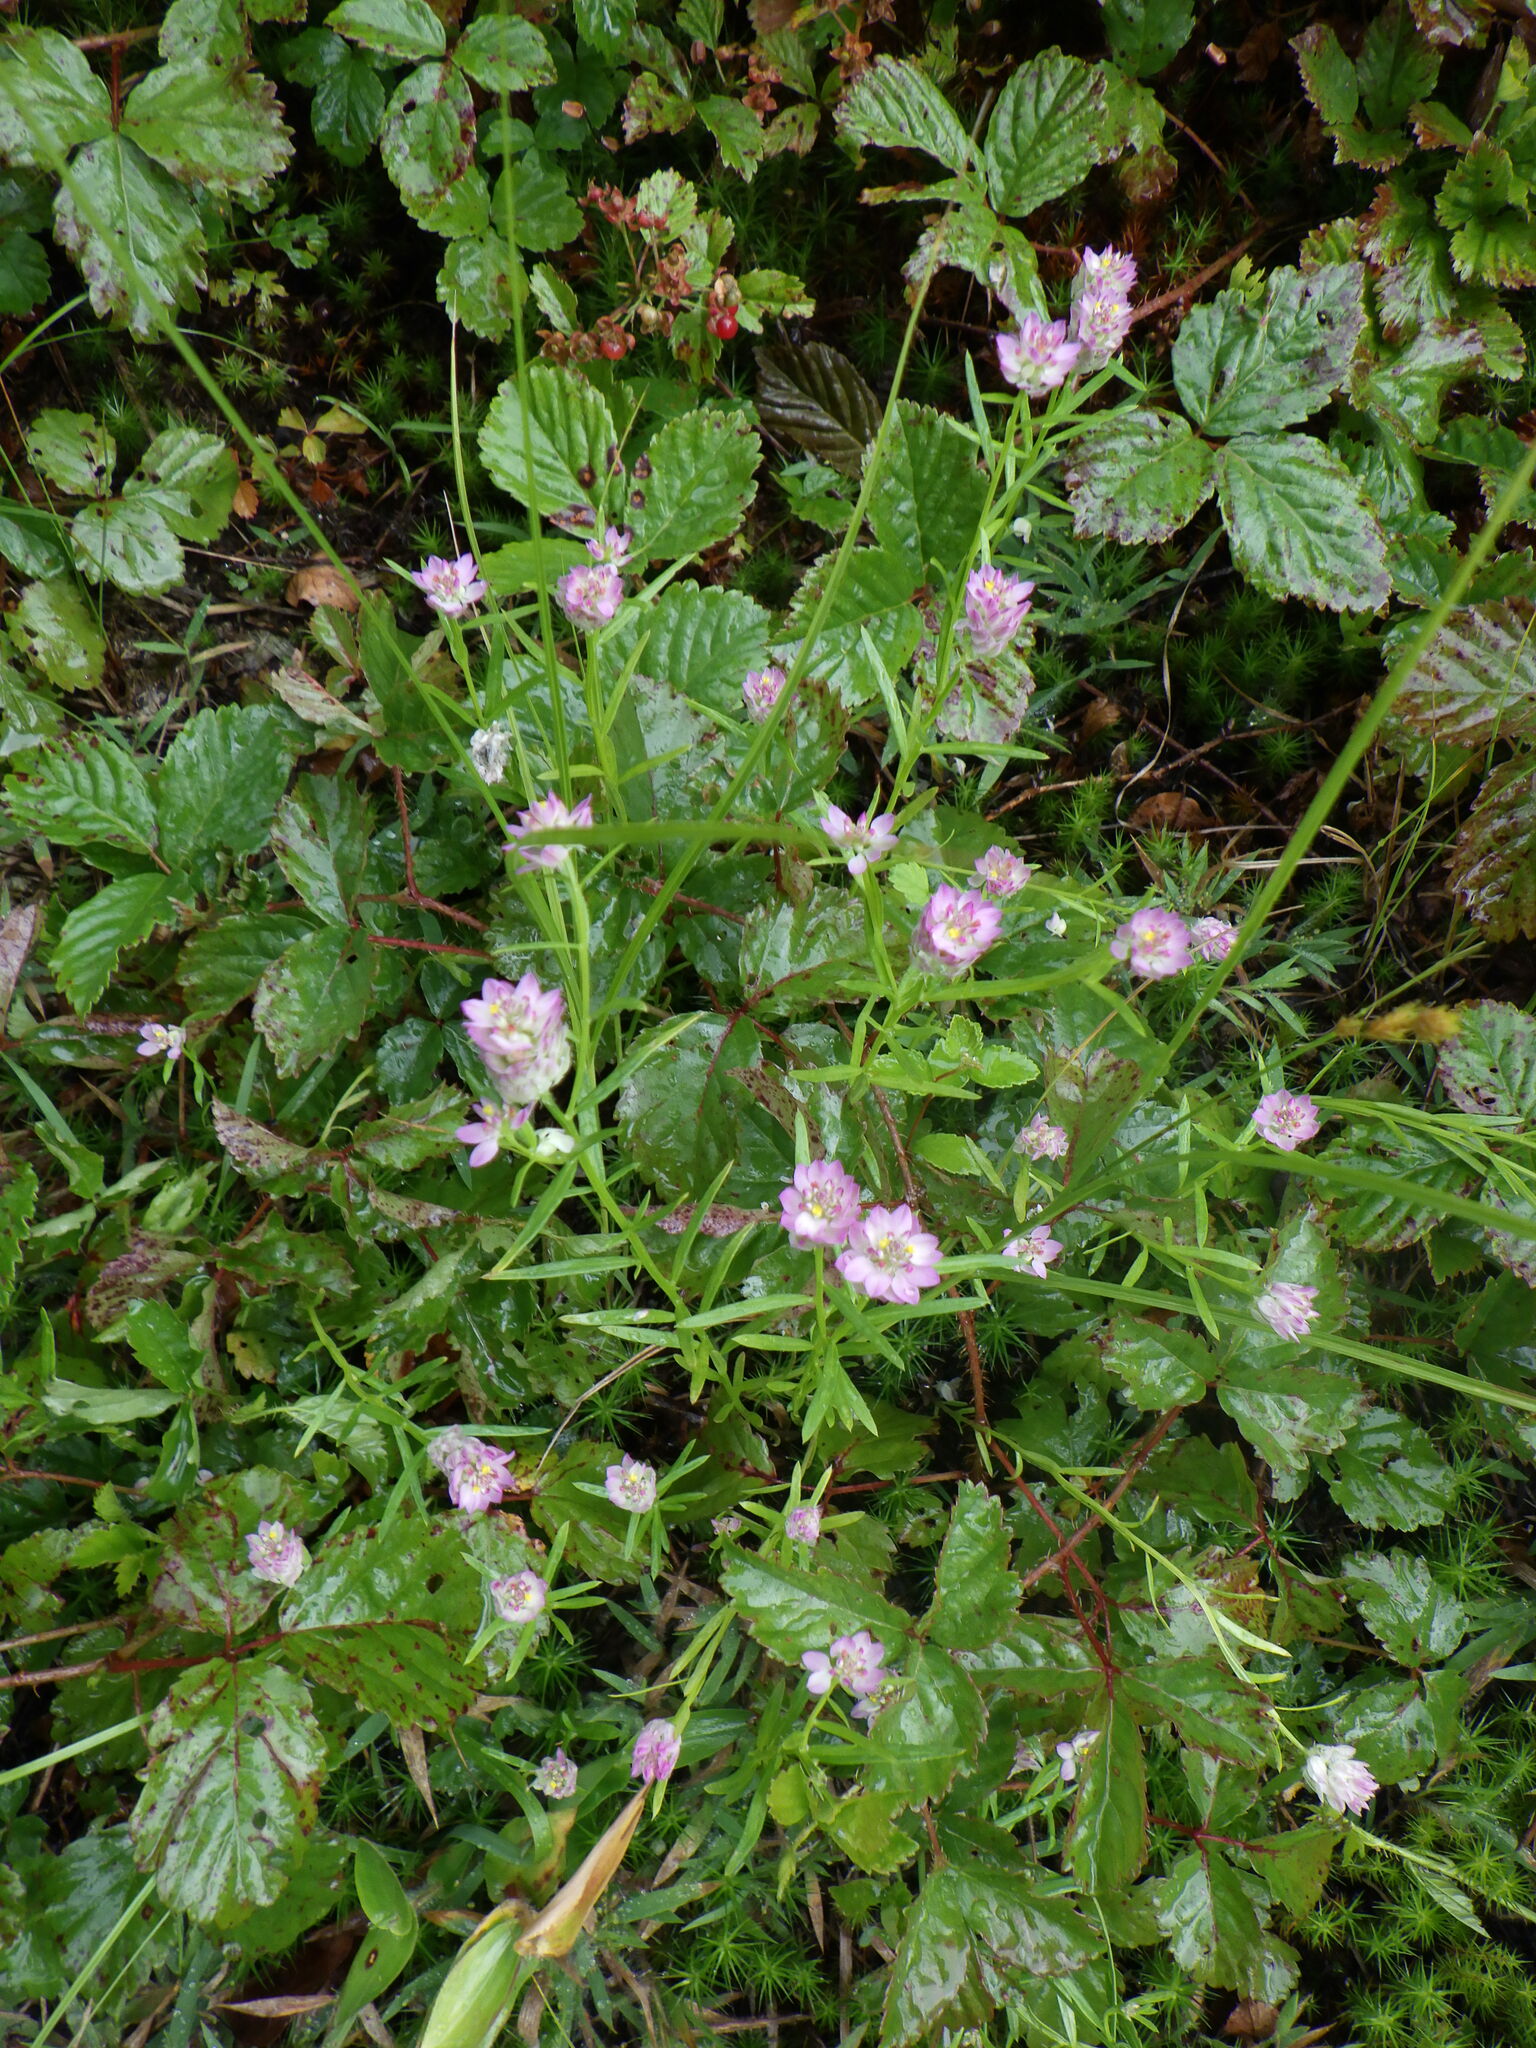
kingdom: Plantae
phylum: Tracheophyta
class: Magnoliopsida
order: Fabales
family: Polygalaceae
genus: Polygala
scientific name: Polygala sanguinea
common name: Blood milkwort
